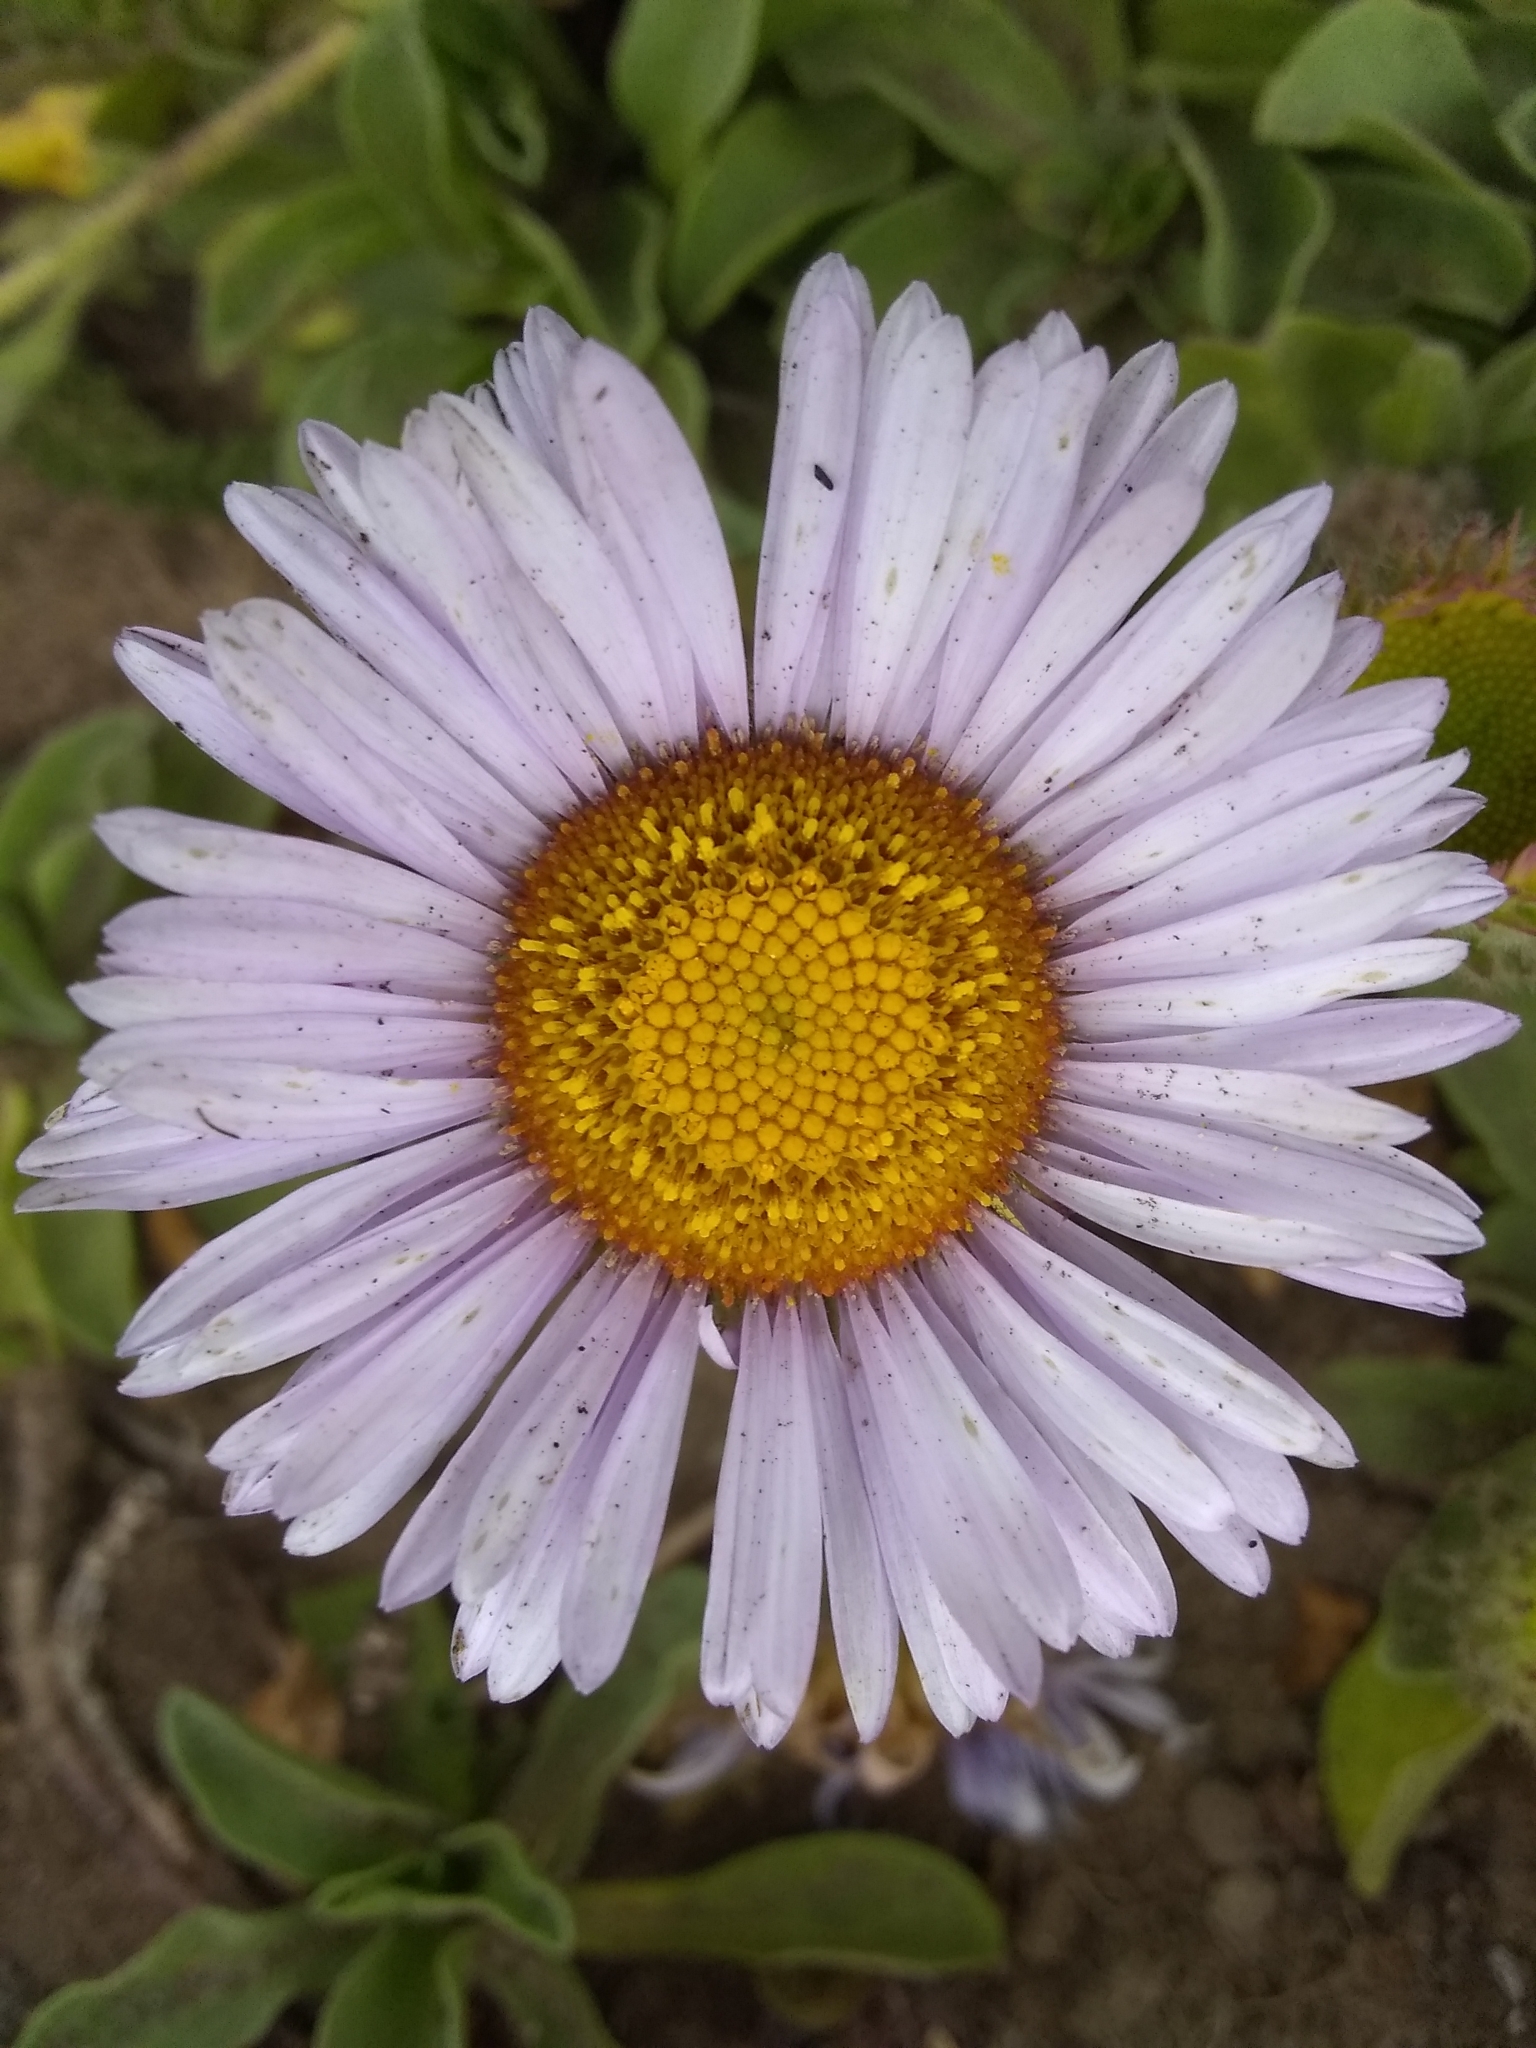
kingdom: Plantae
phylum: Tracheophyta
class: Magnoliopsida
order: Asterales
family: Asteraceae
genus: Erigeron
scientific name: Erigeron glaucus
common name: Seaside daisy
